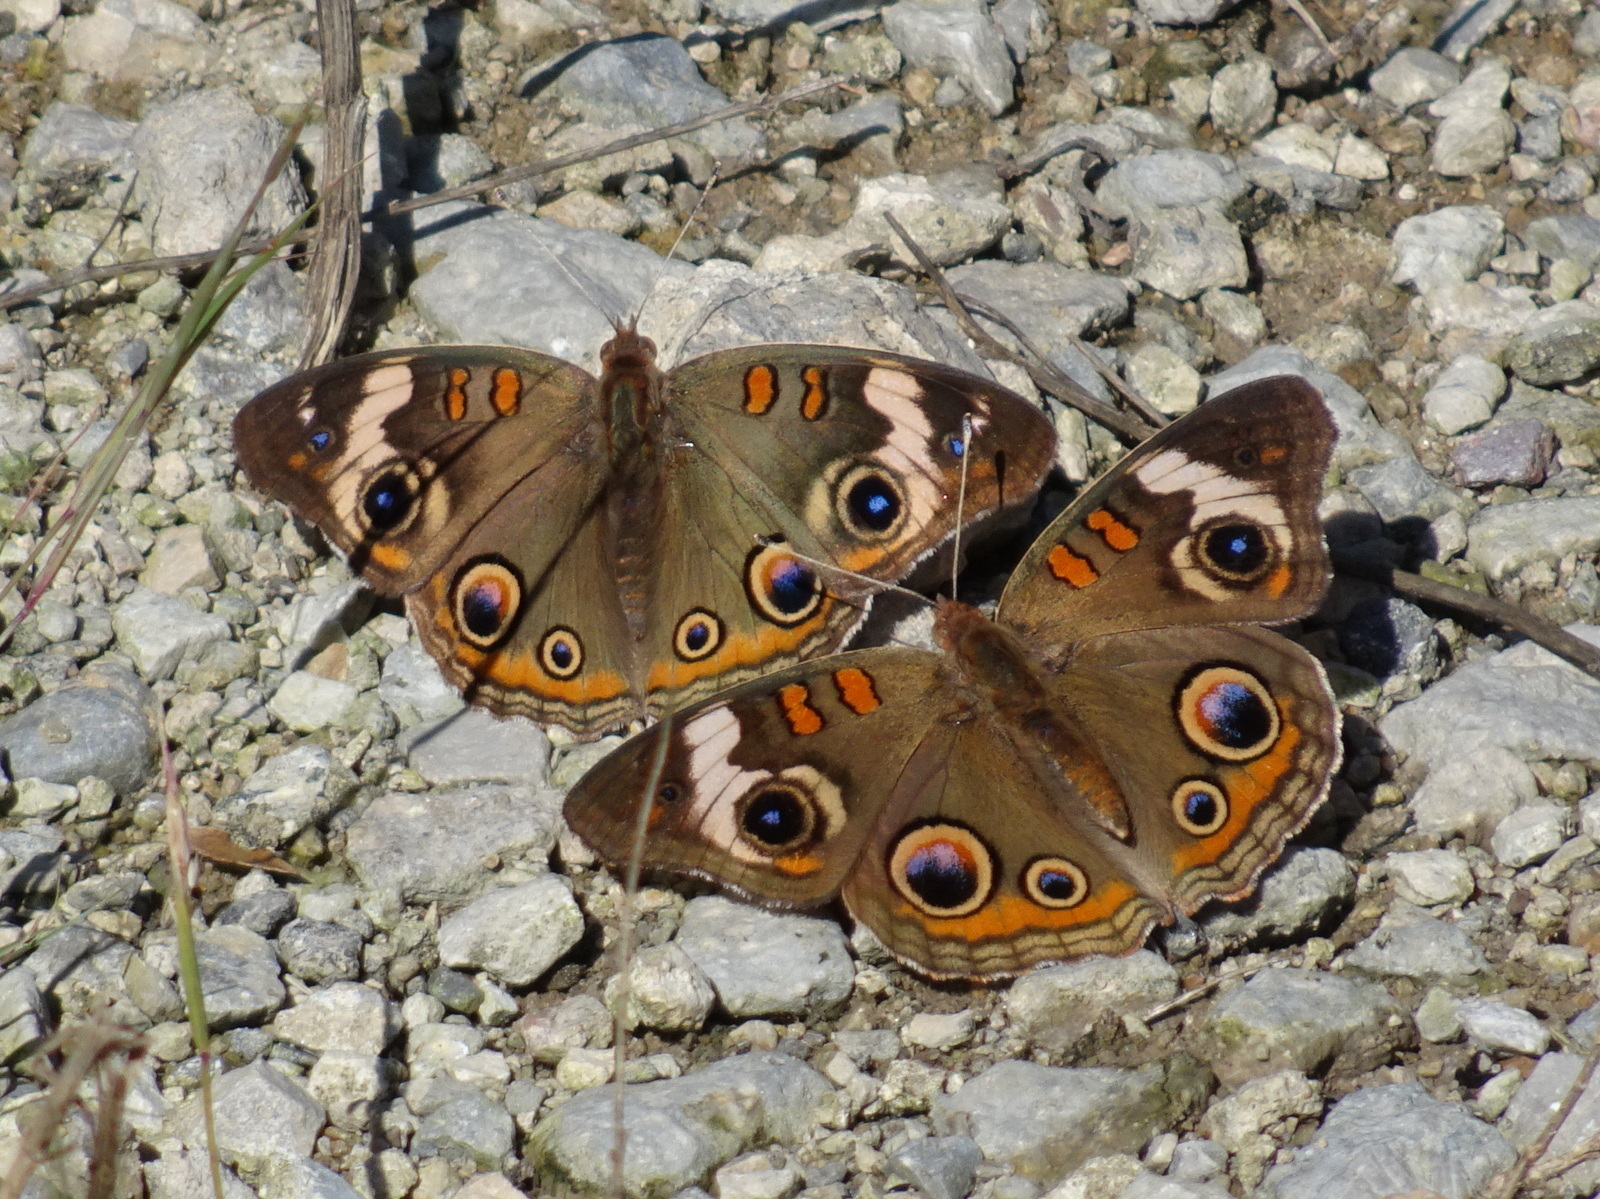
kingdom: Animalia
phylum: Arthropoda
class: Insecta
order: Lepidoptera
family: Nymphalidae
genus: Junonia
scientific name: Junonia coenia
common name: Common buckeye
